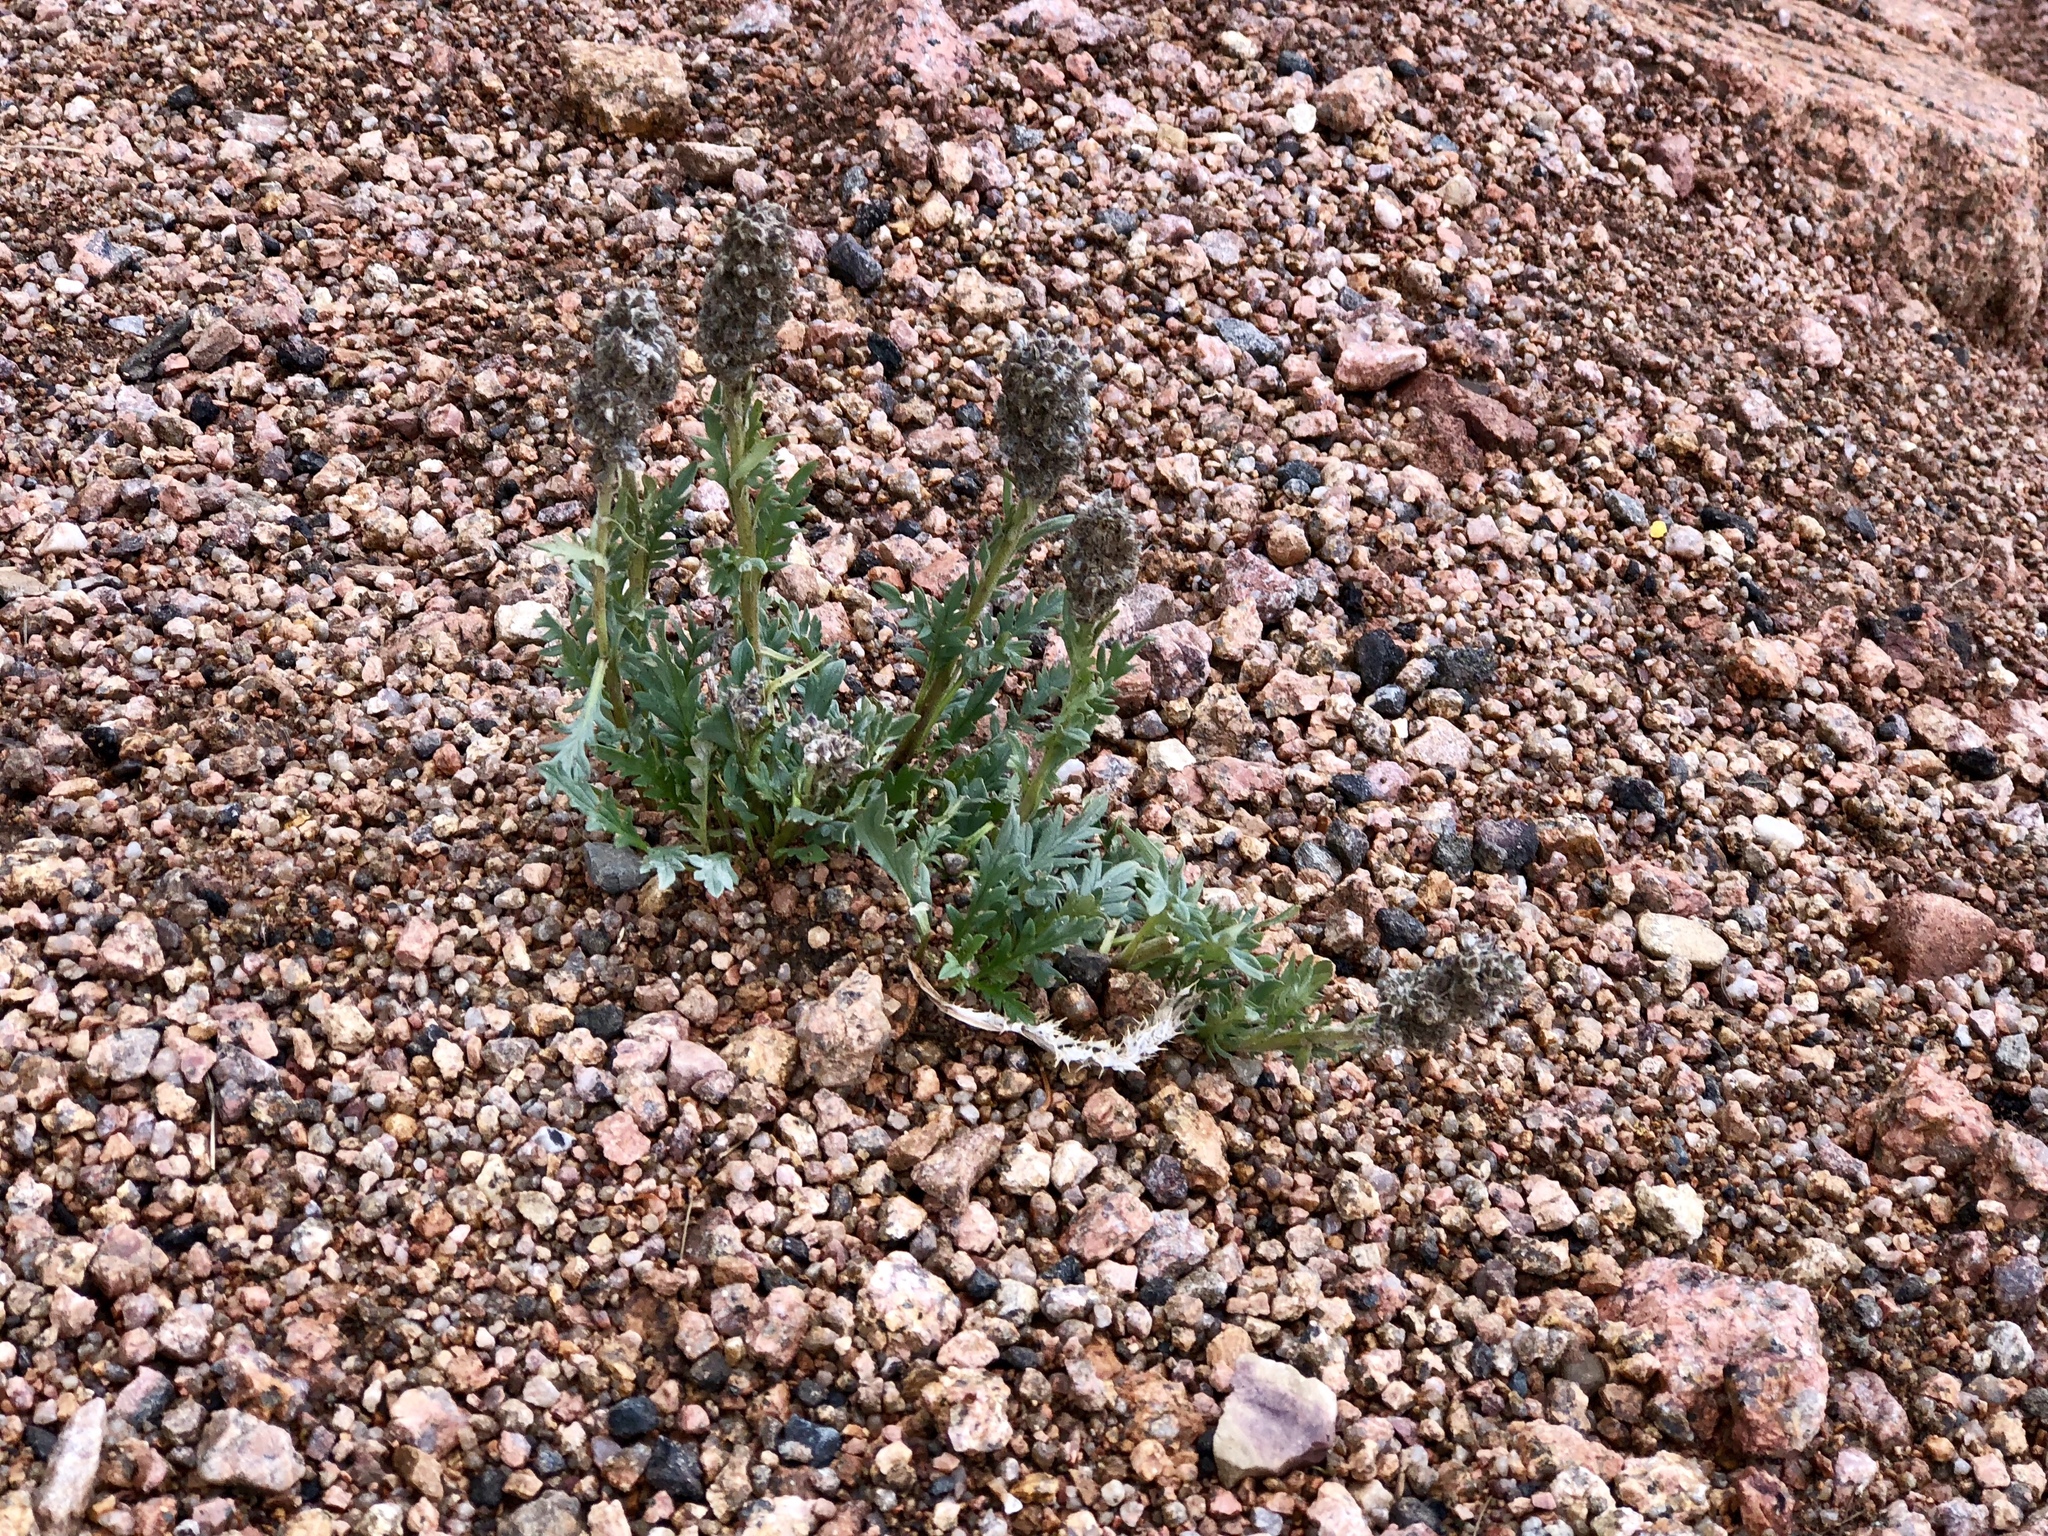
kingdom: Plantae
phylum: Tracheophyta
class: Magnoliopsida
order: Boraginales
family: Hydrophyllaceae
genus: Phacelia
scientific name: Phacelia sericea
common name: Silky phacelia
